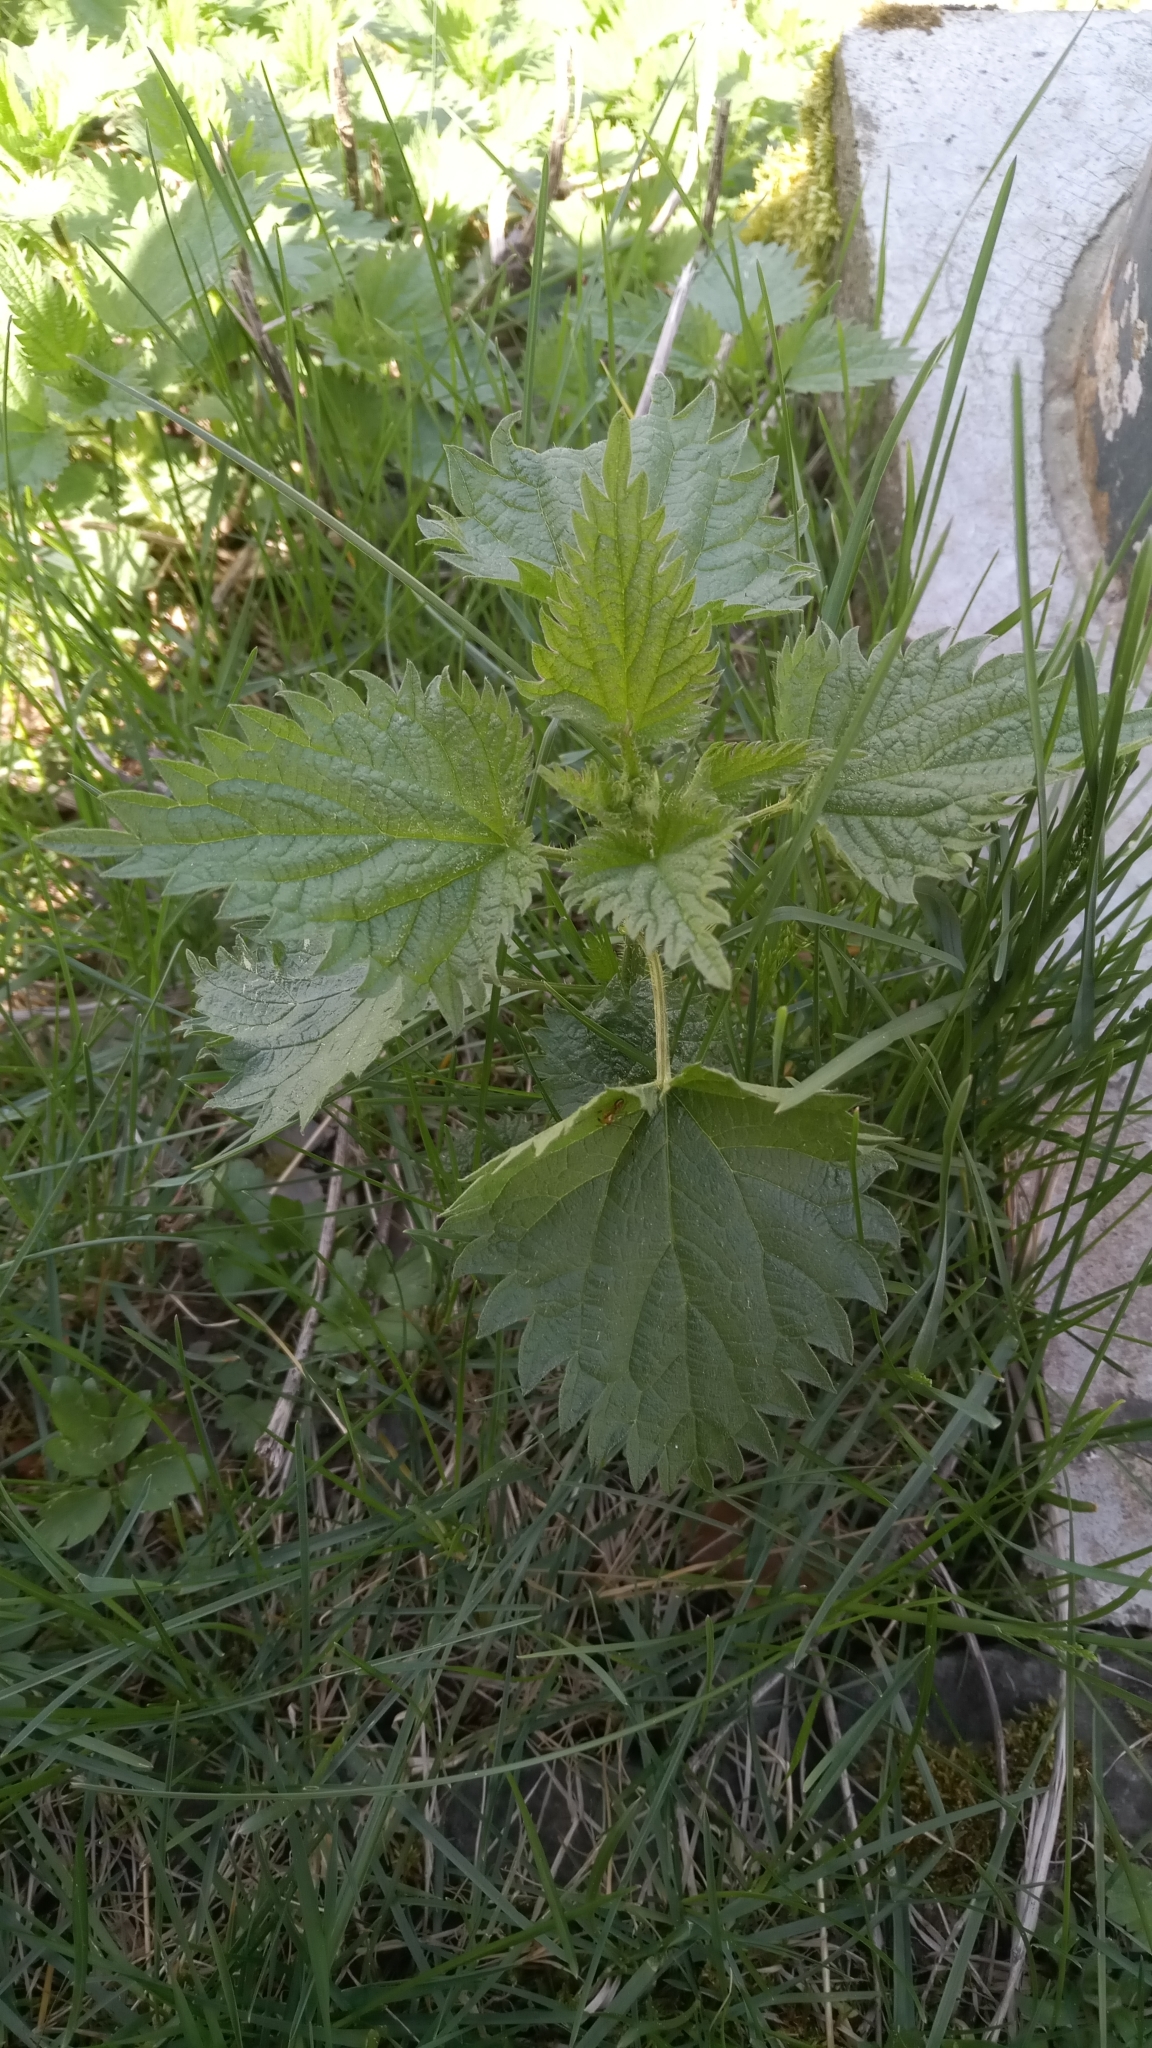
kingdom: Plantae
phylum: Tracheophyta
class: Magnoliopsida
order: Rosales
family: Urticaceae
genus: Urtica
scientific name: Urtica dioica
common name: Common nettle
